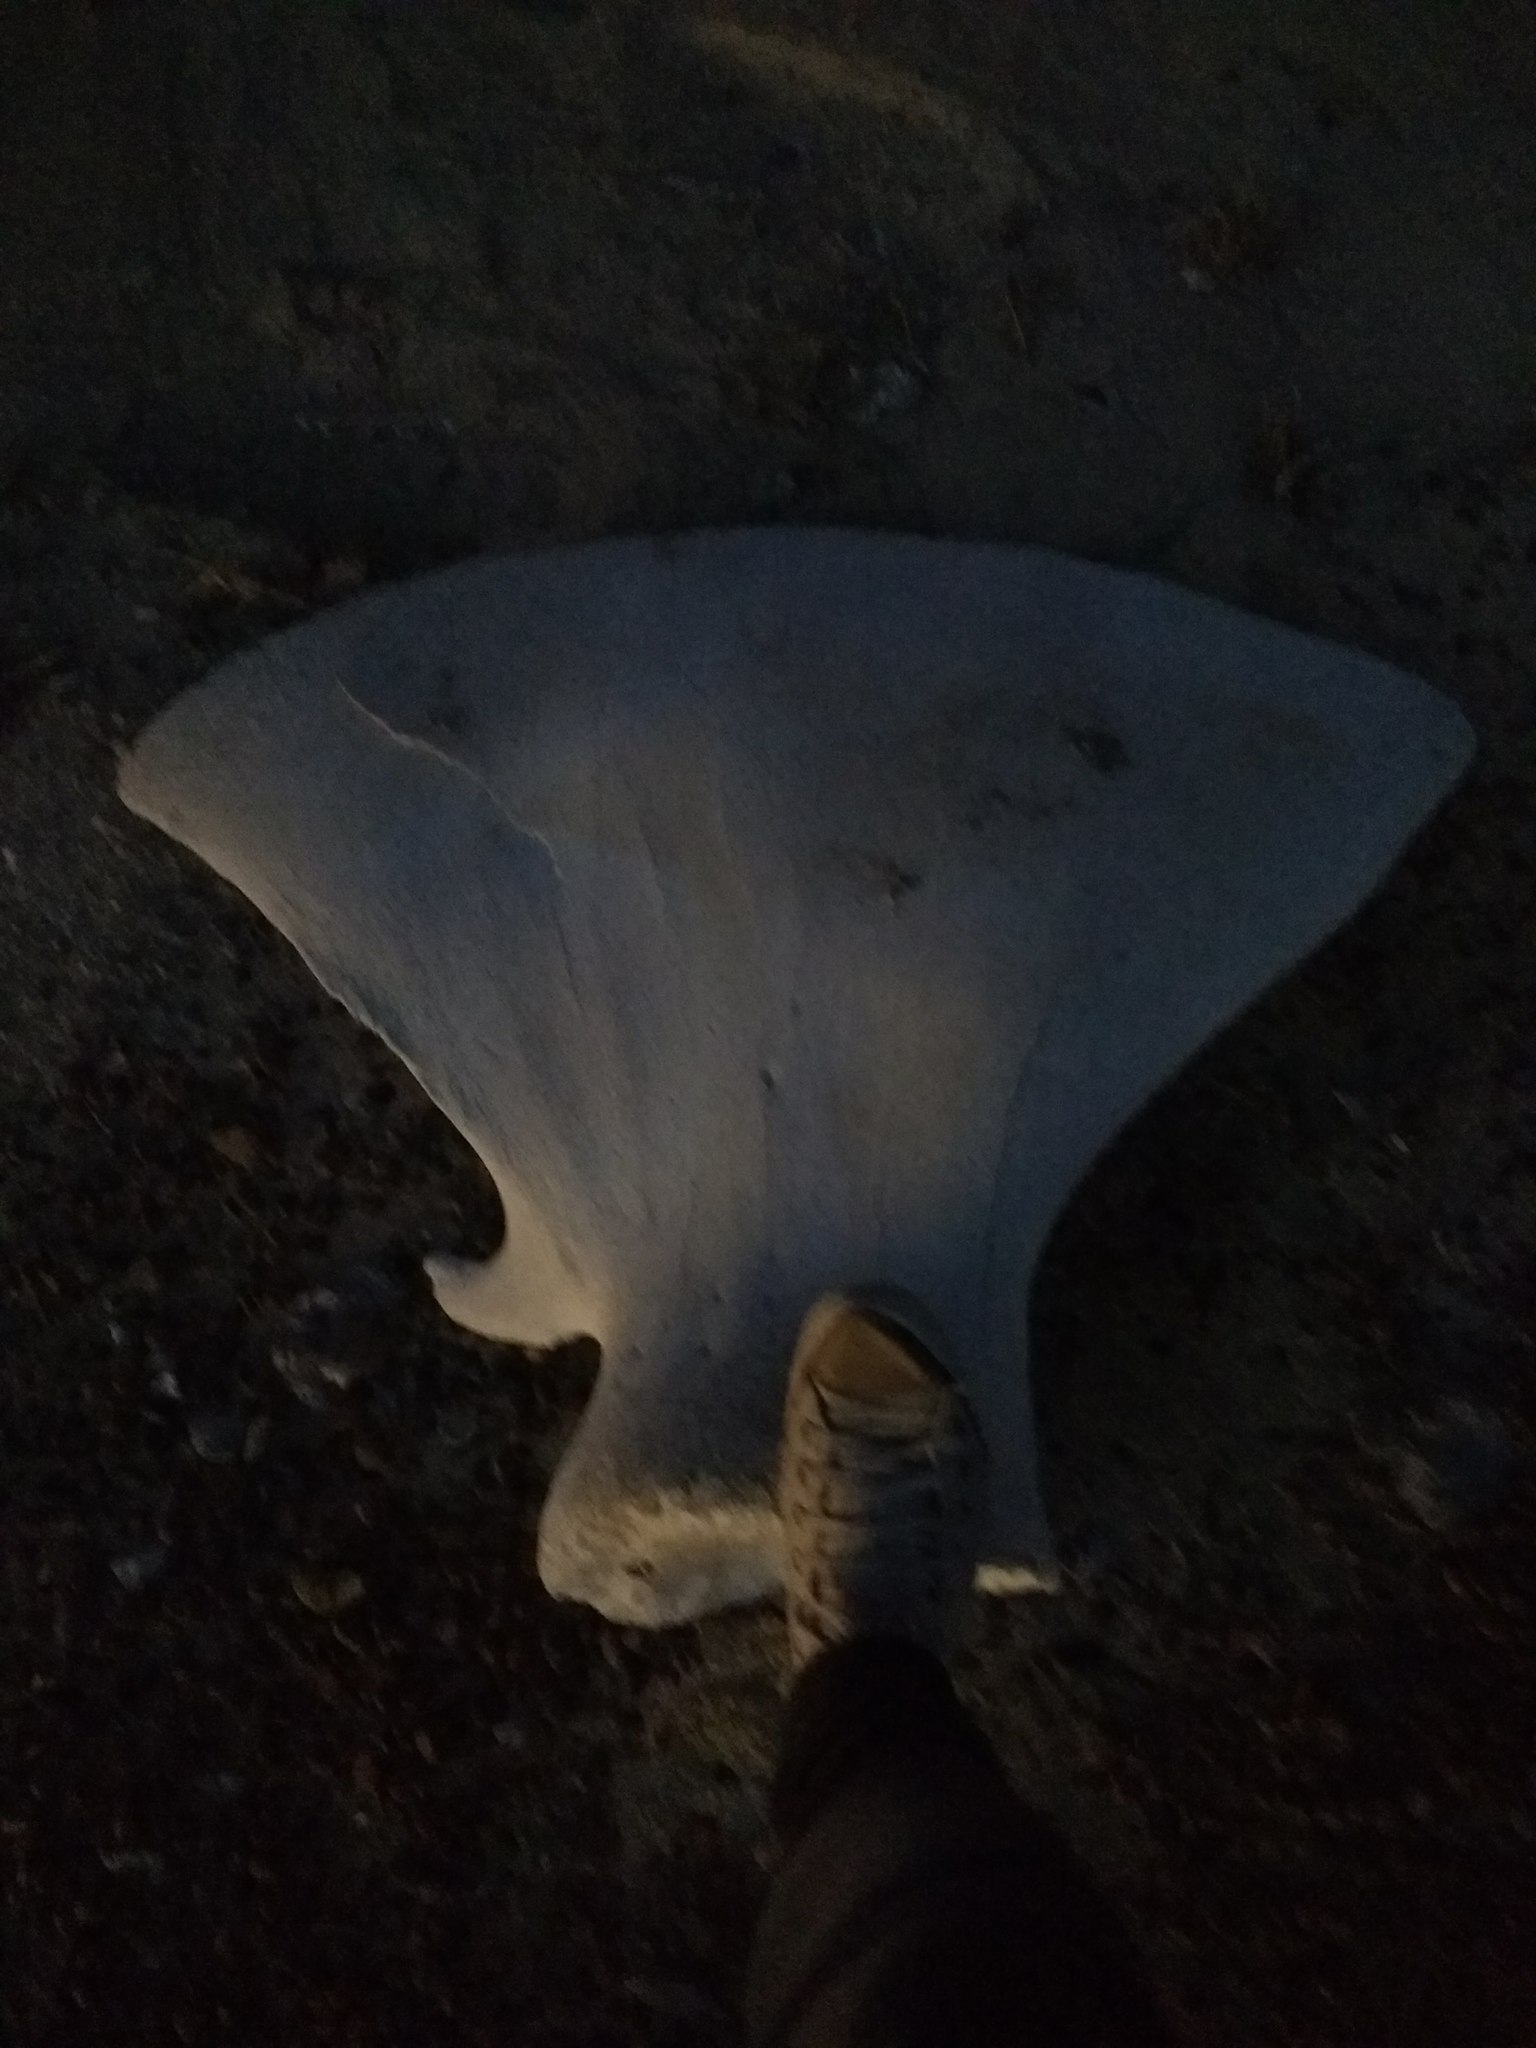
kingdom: Animalia
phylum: Chordata
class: Mammalia
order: Cetacea
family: Balaenidae
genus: Eubalaena
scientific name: Eubalaena australis
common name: Southern right whale
